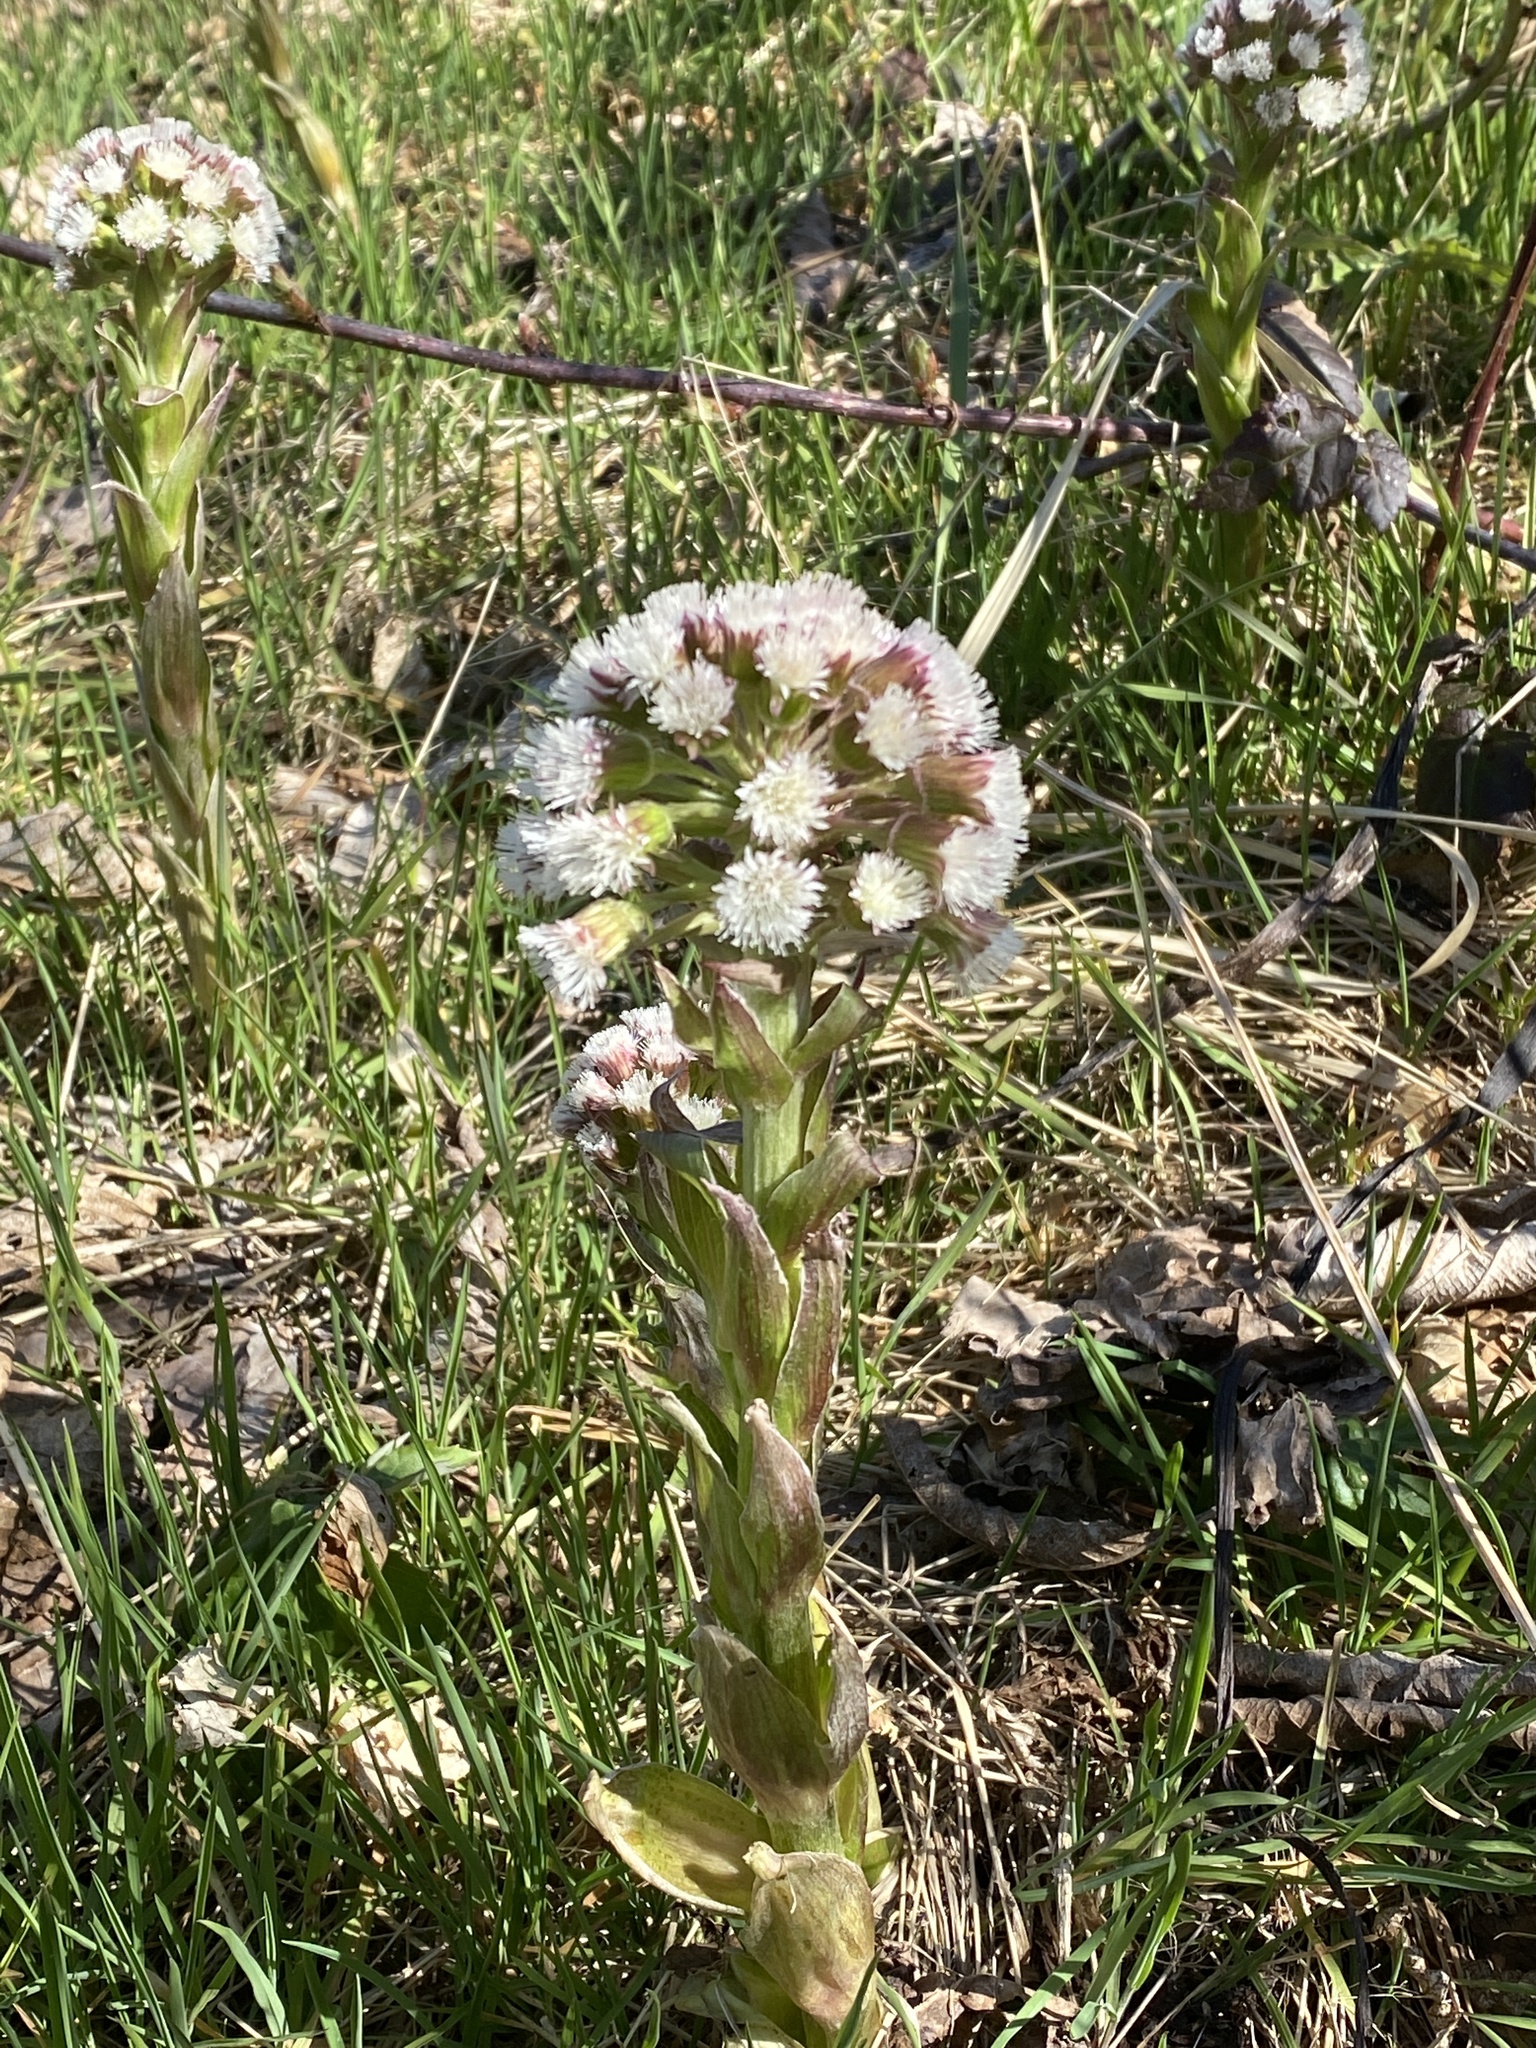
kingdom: Plantae
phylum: Tracheophyta
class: Magnoliopsida
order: Asterales
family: Asteraceae
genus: Petasites
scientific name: Petasites frigidus
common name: Arctic butterbur
